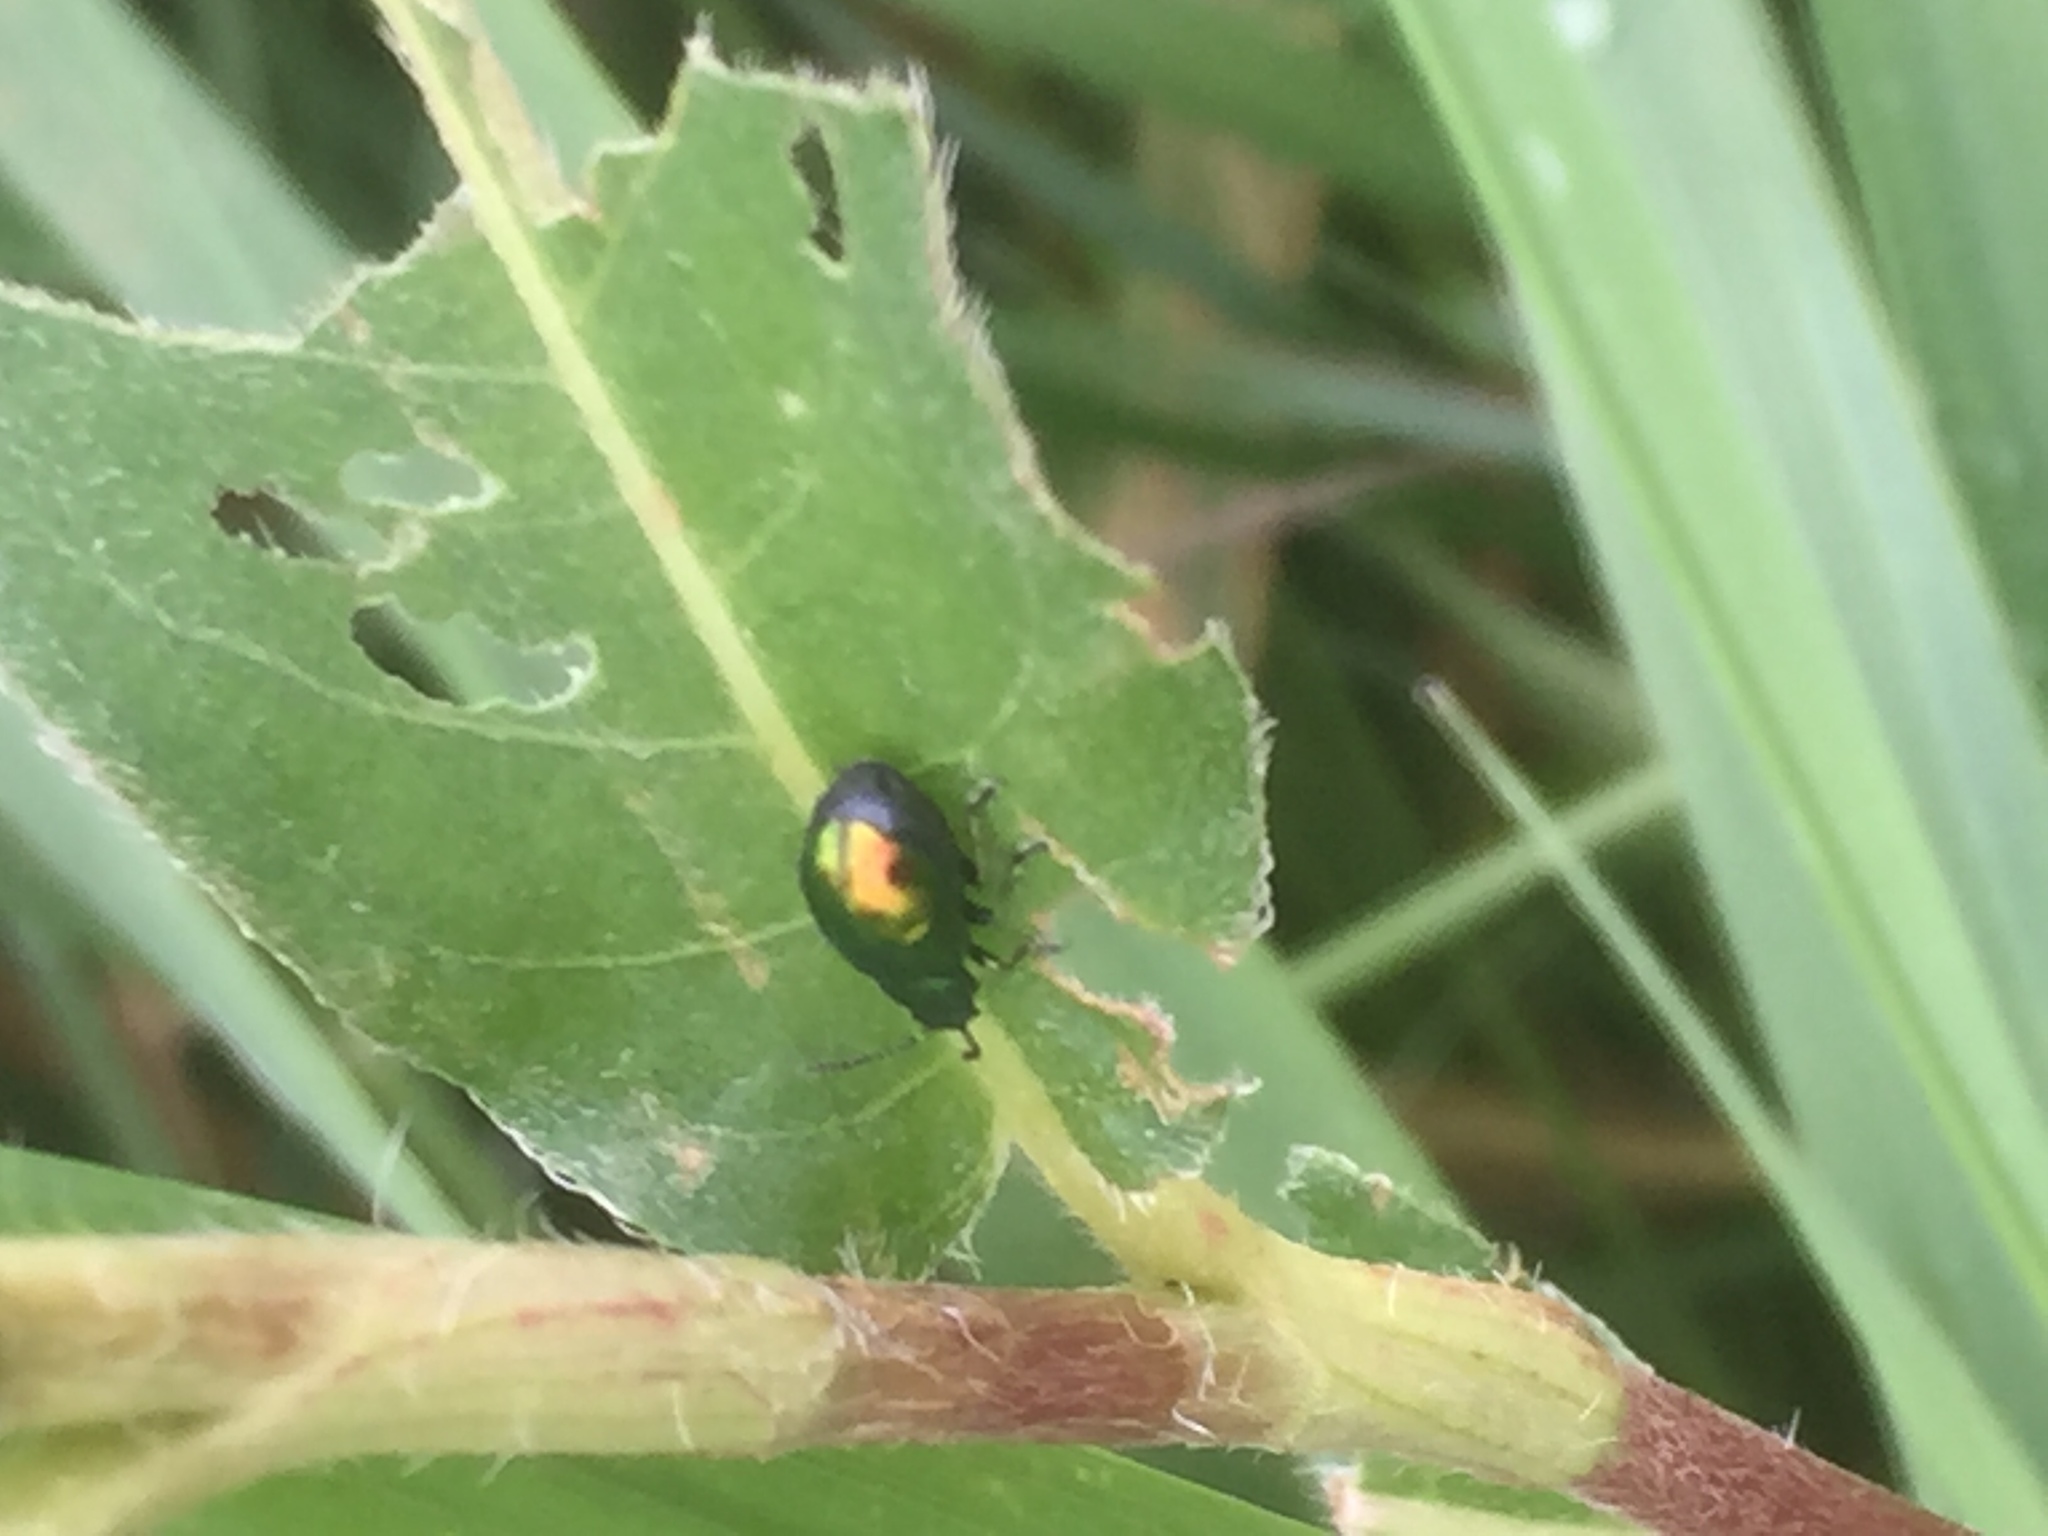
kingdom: Animalia
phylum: Arthropoda
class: Insecta
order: Coleoptera
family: Chrysomelidae
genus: Gastrophysa
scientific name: Gastrophysa viridula
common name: Green dock beetle
